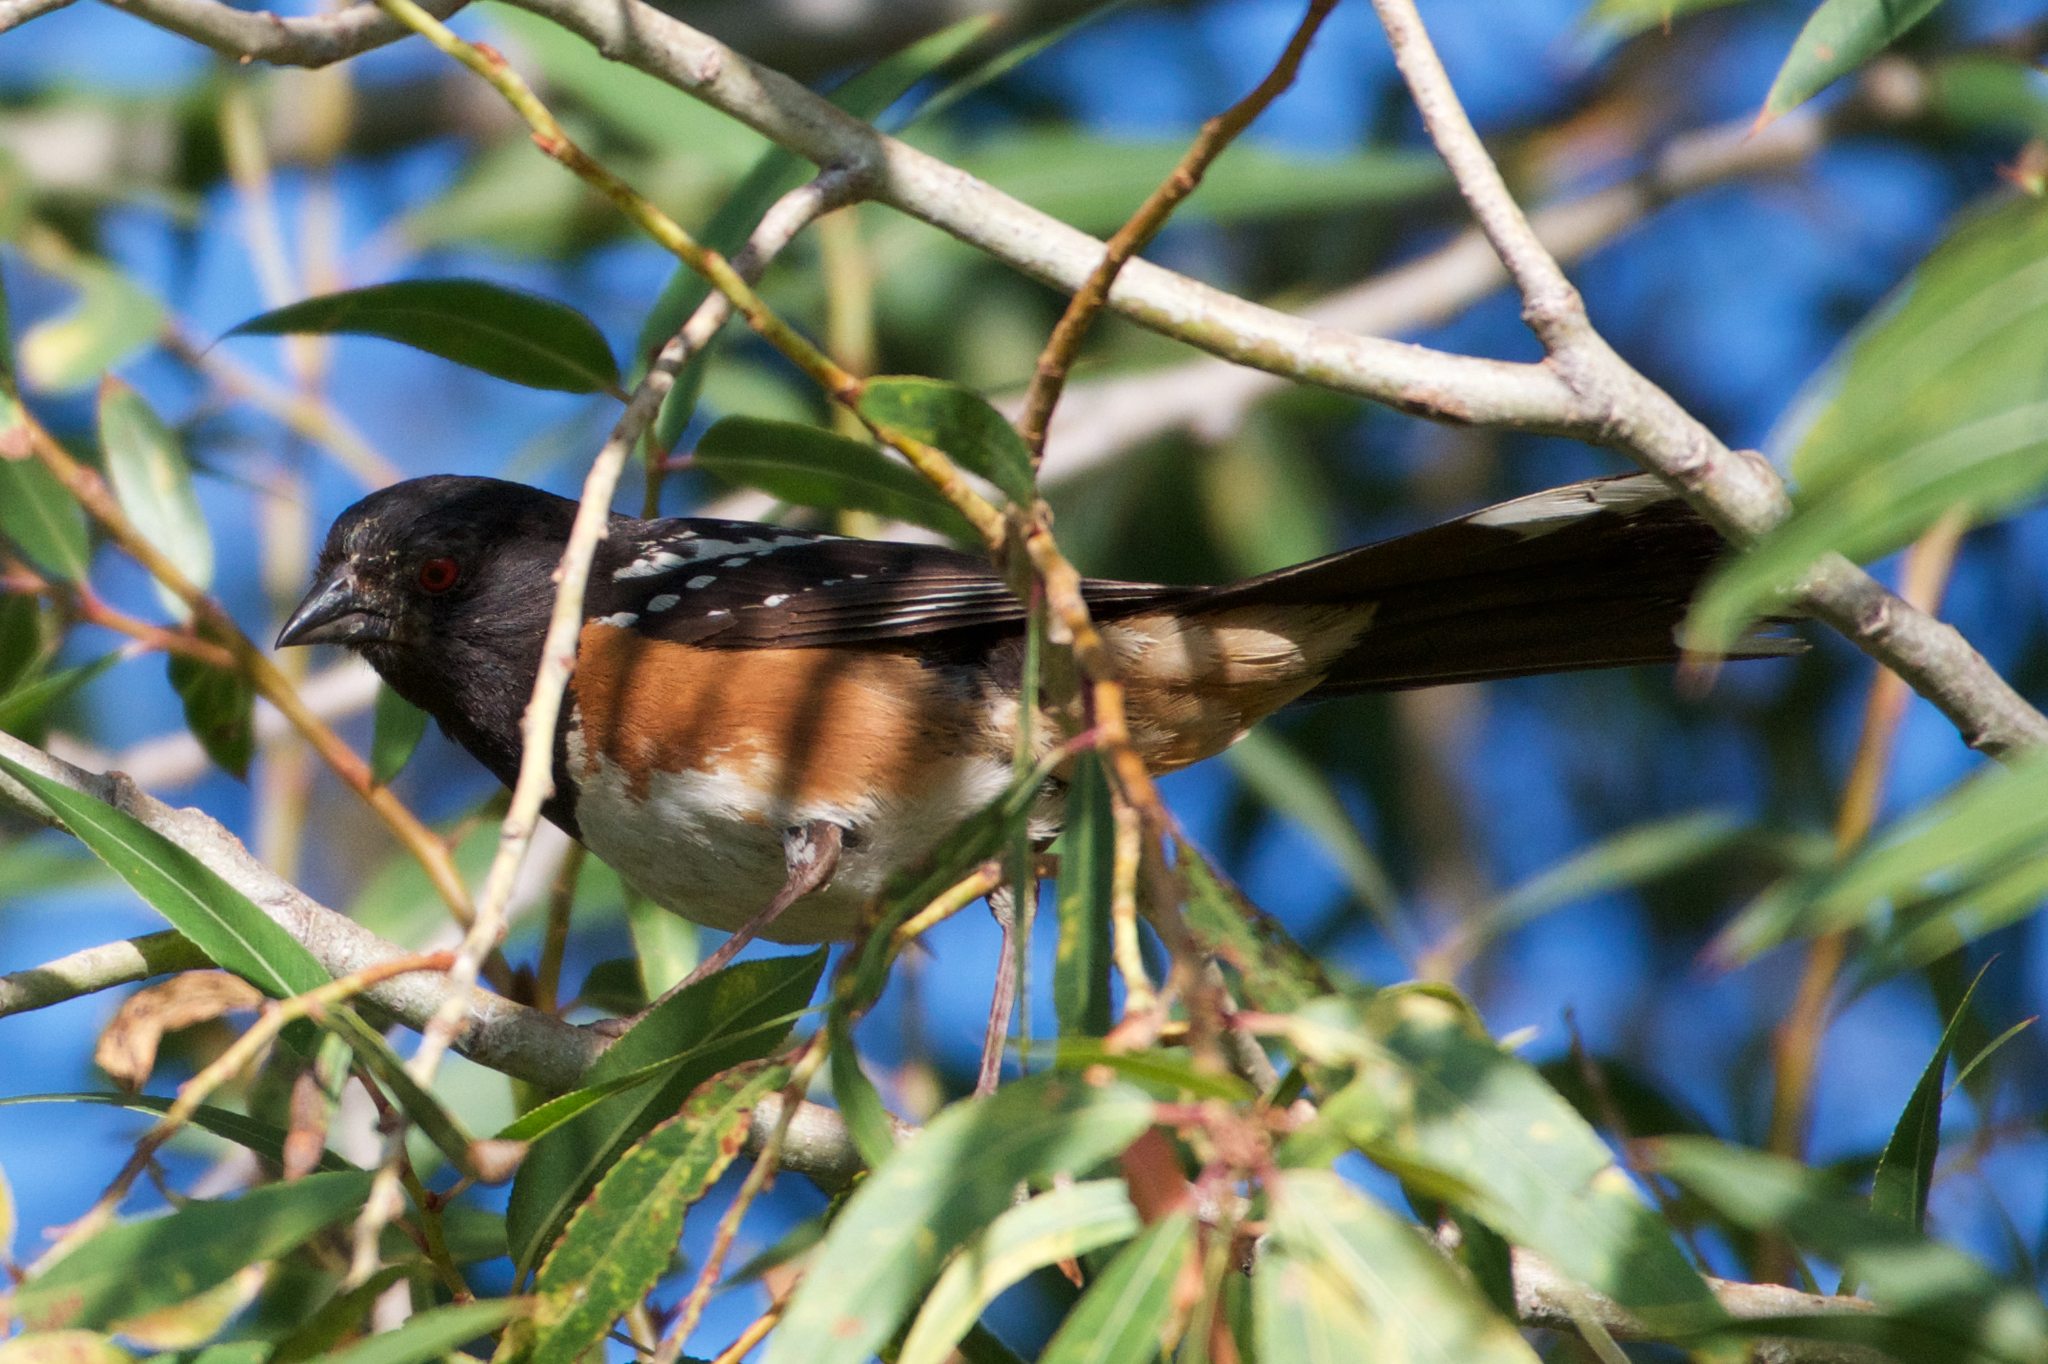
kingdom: Animalia
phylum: Chordata
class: Aves
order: Passeriformes
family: Passerellidae
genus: Pipilo
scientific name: Pipilo maculatus
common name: Spotted towhee
